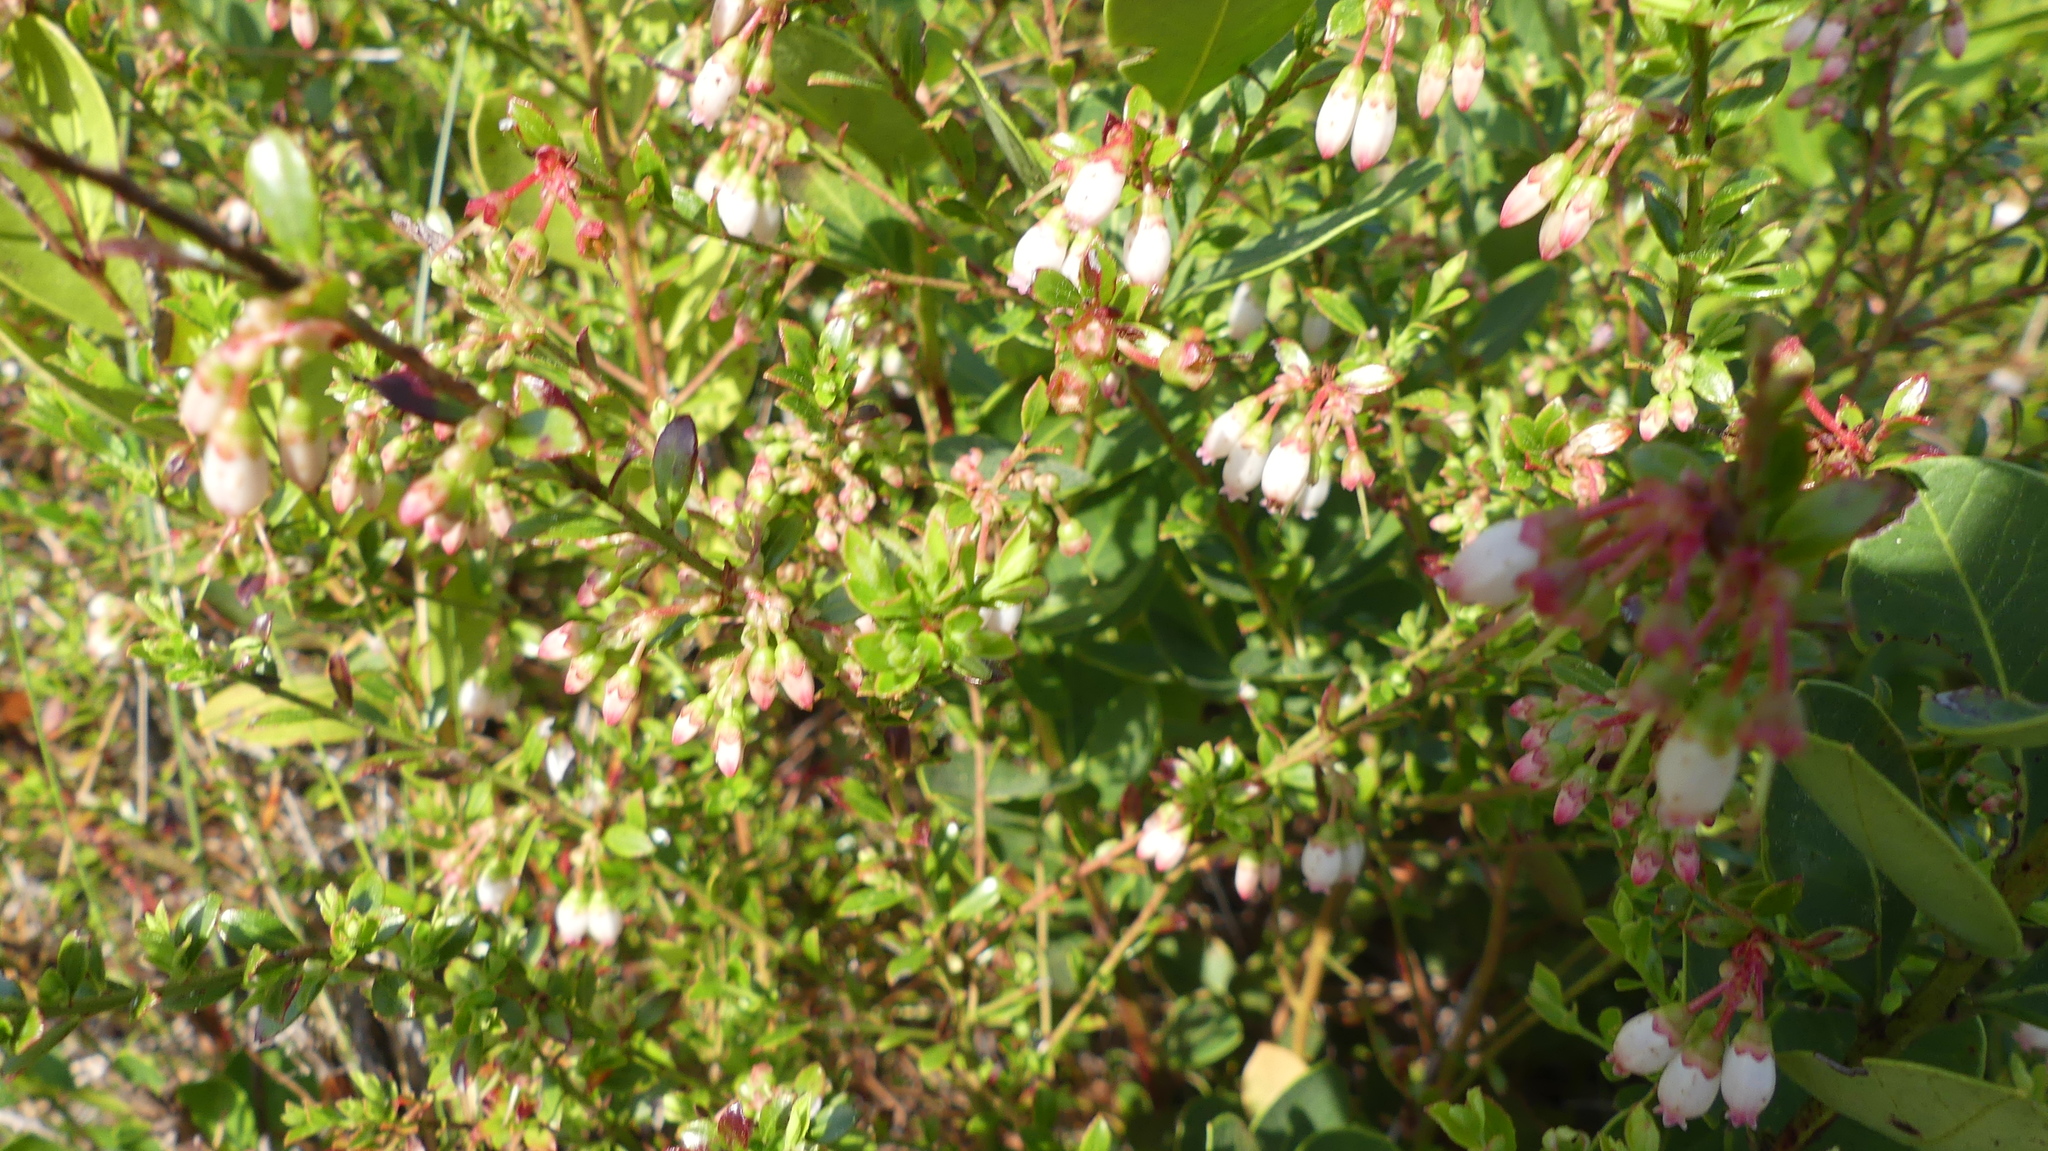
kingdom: Plantae
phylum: Tracheophyta
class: Magnoliopsida
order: Ericales
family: Ericaceae
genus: Vaccinium
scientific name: Vaccinium myrsinites
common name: Evergreen blueberry
